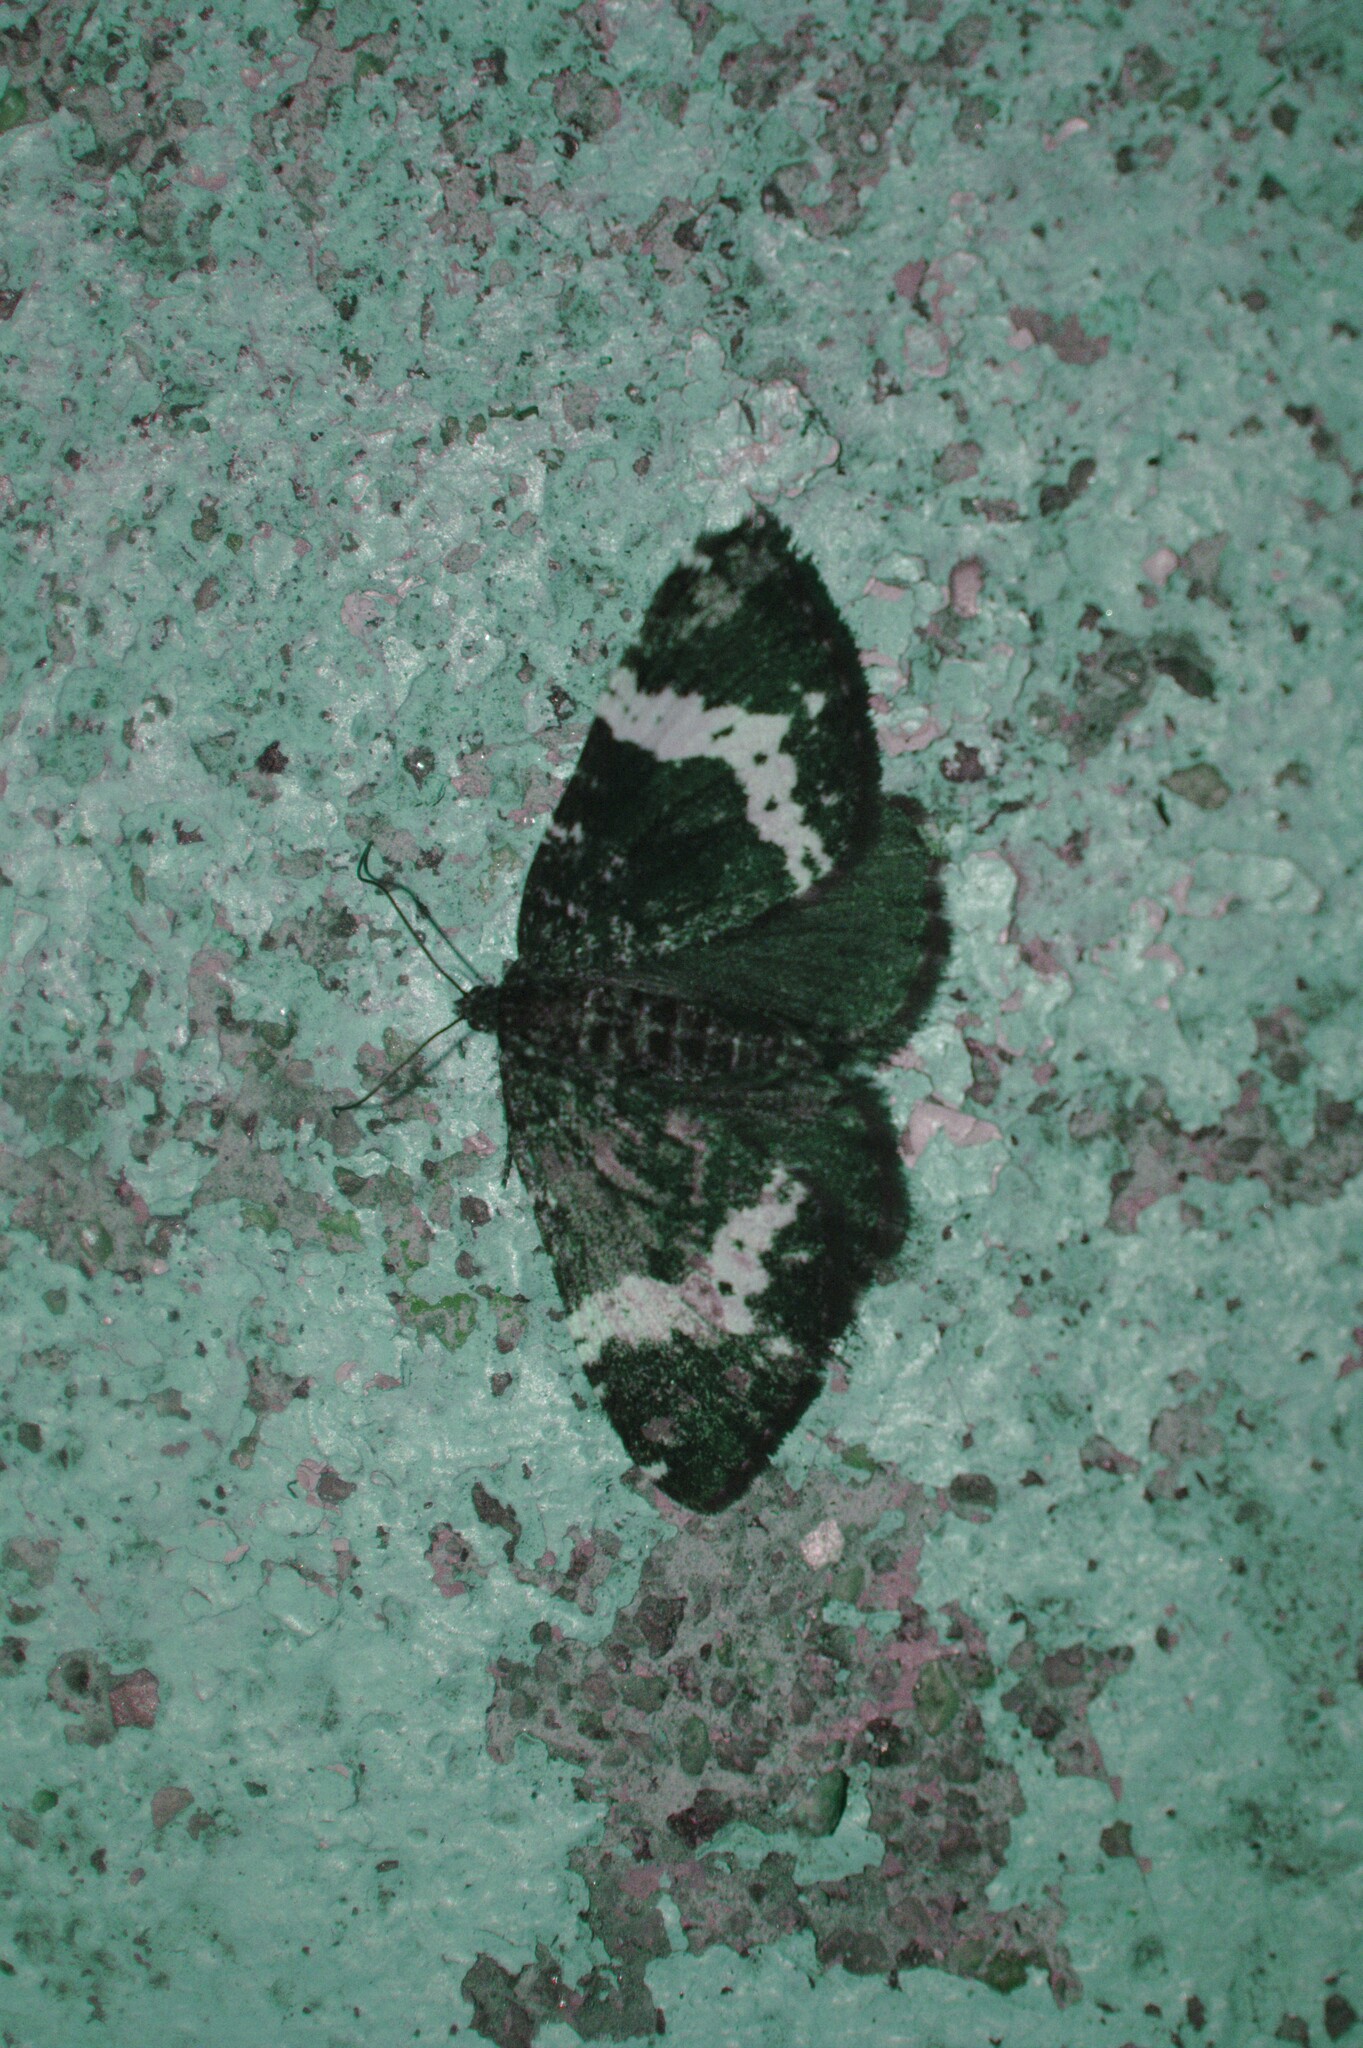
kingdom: Animalia
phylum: Arthropoda
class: Insecta
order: Lepidoptera
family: Geometridae
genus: Rheumaptera
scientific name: Rheumaptera
